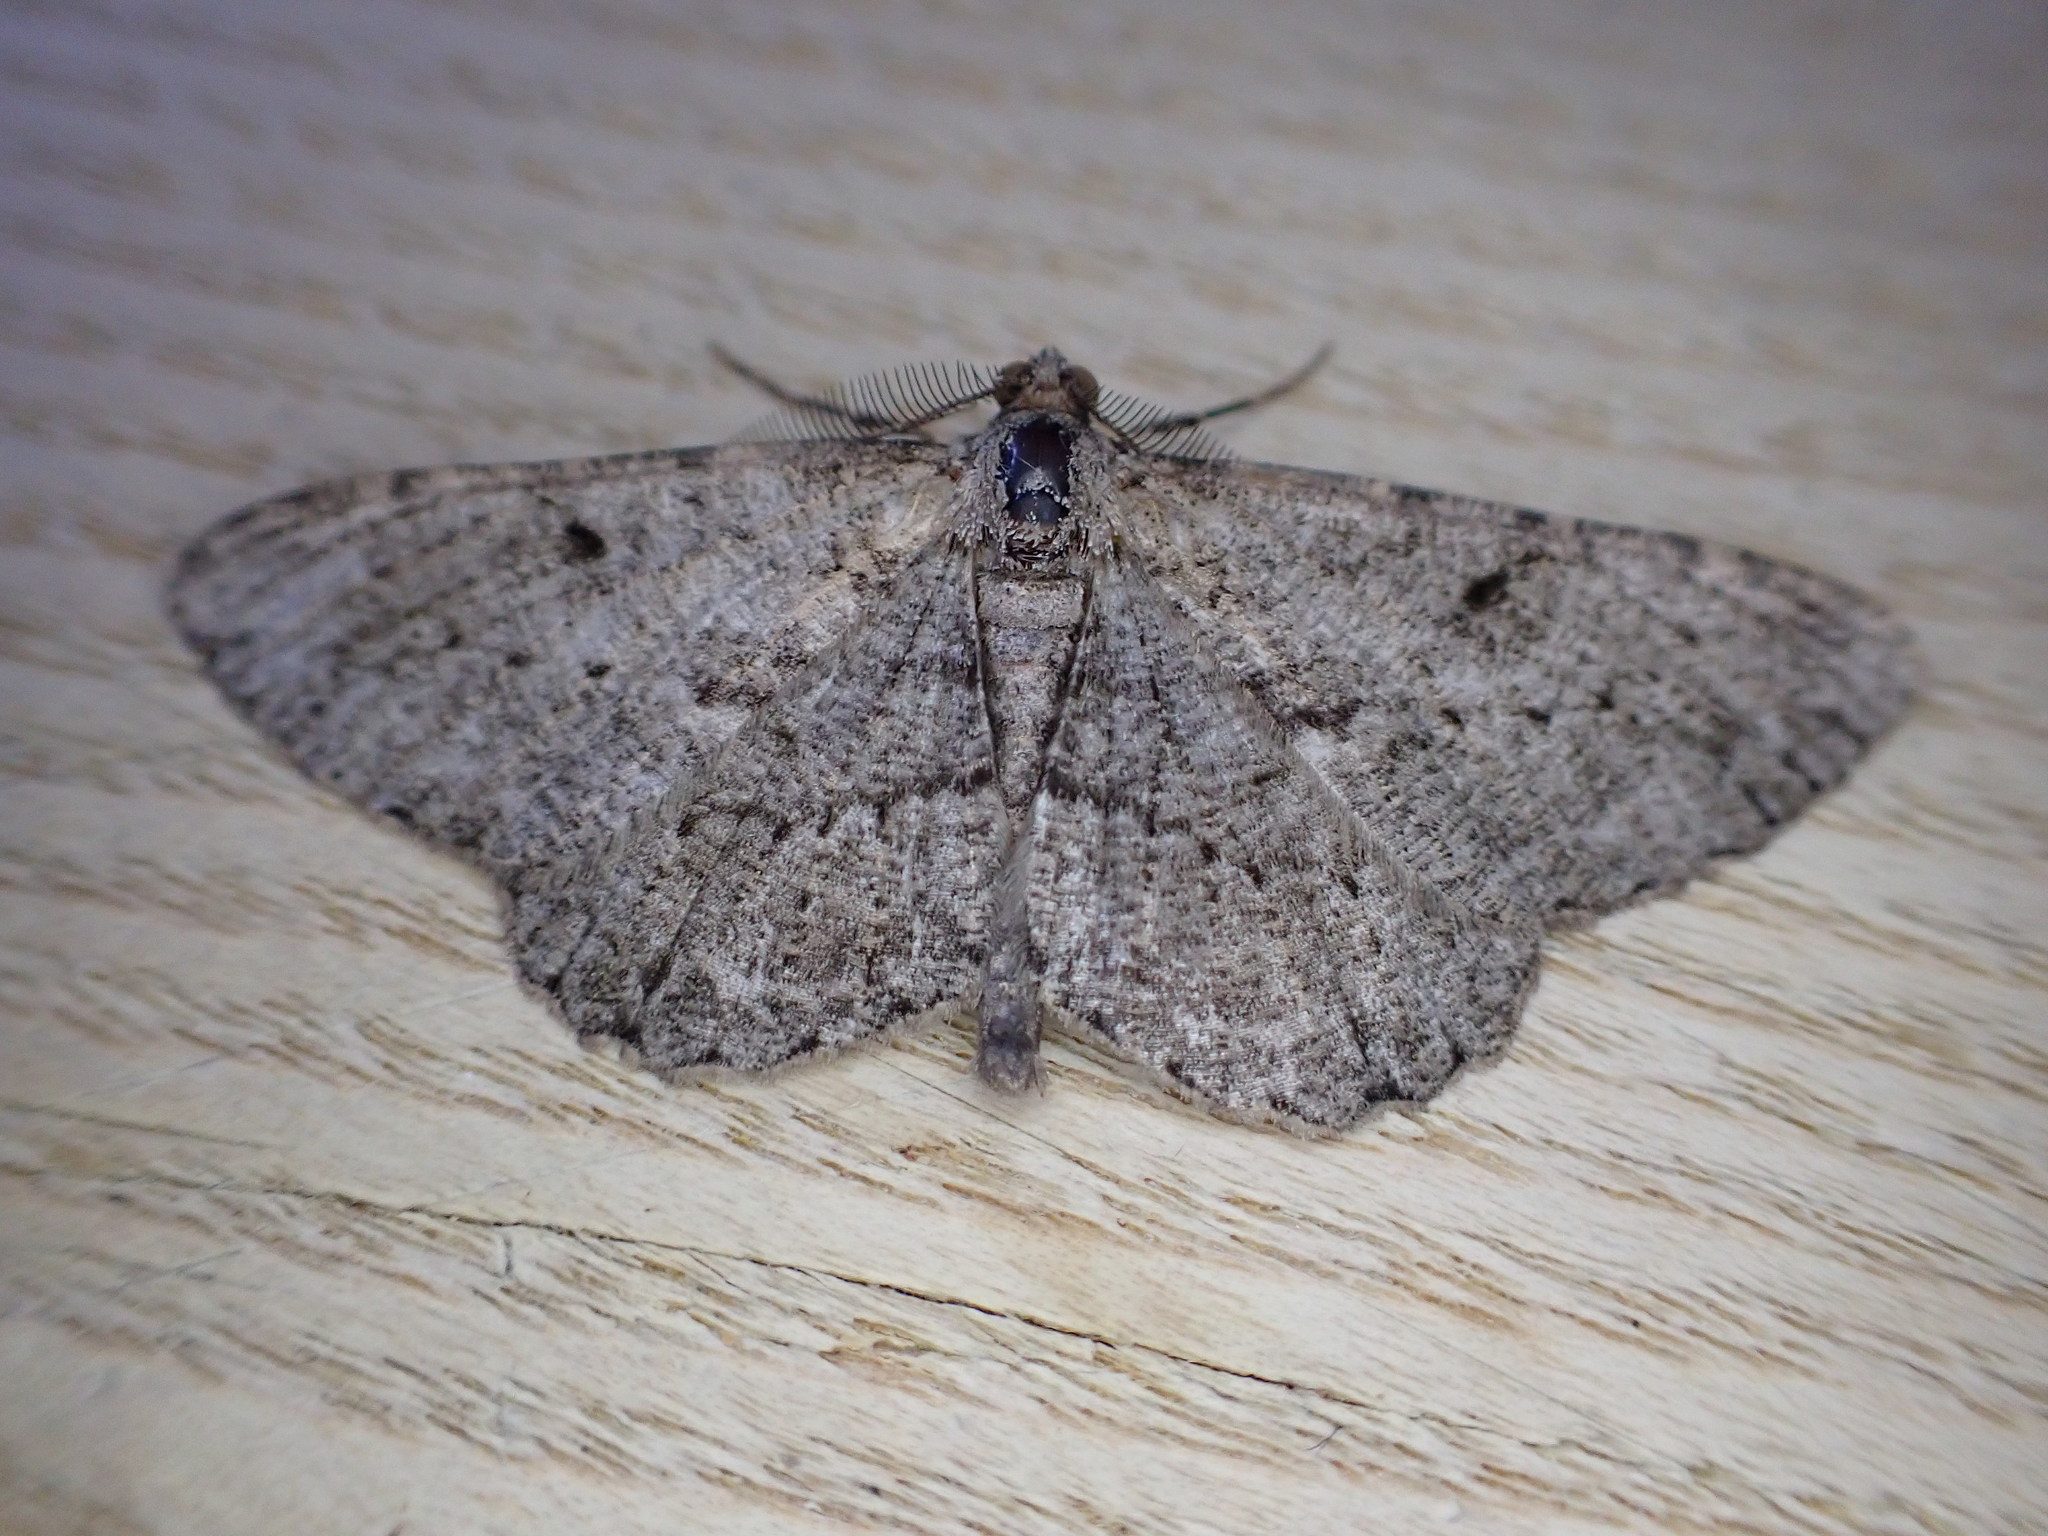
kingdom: Animalia
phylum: Arthropoda
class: Insecta
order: Lepidoptera
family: Geometridae
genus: Peribatodes
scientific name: Peribatodes rhomboidaria
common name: Willow beauty
